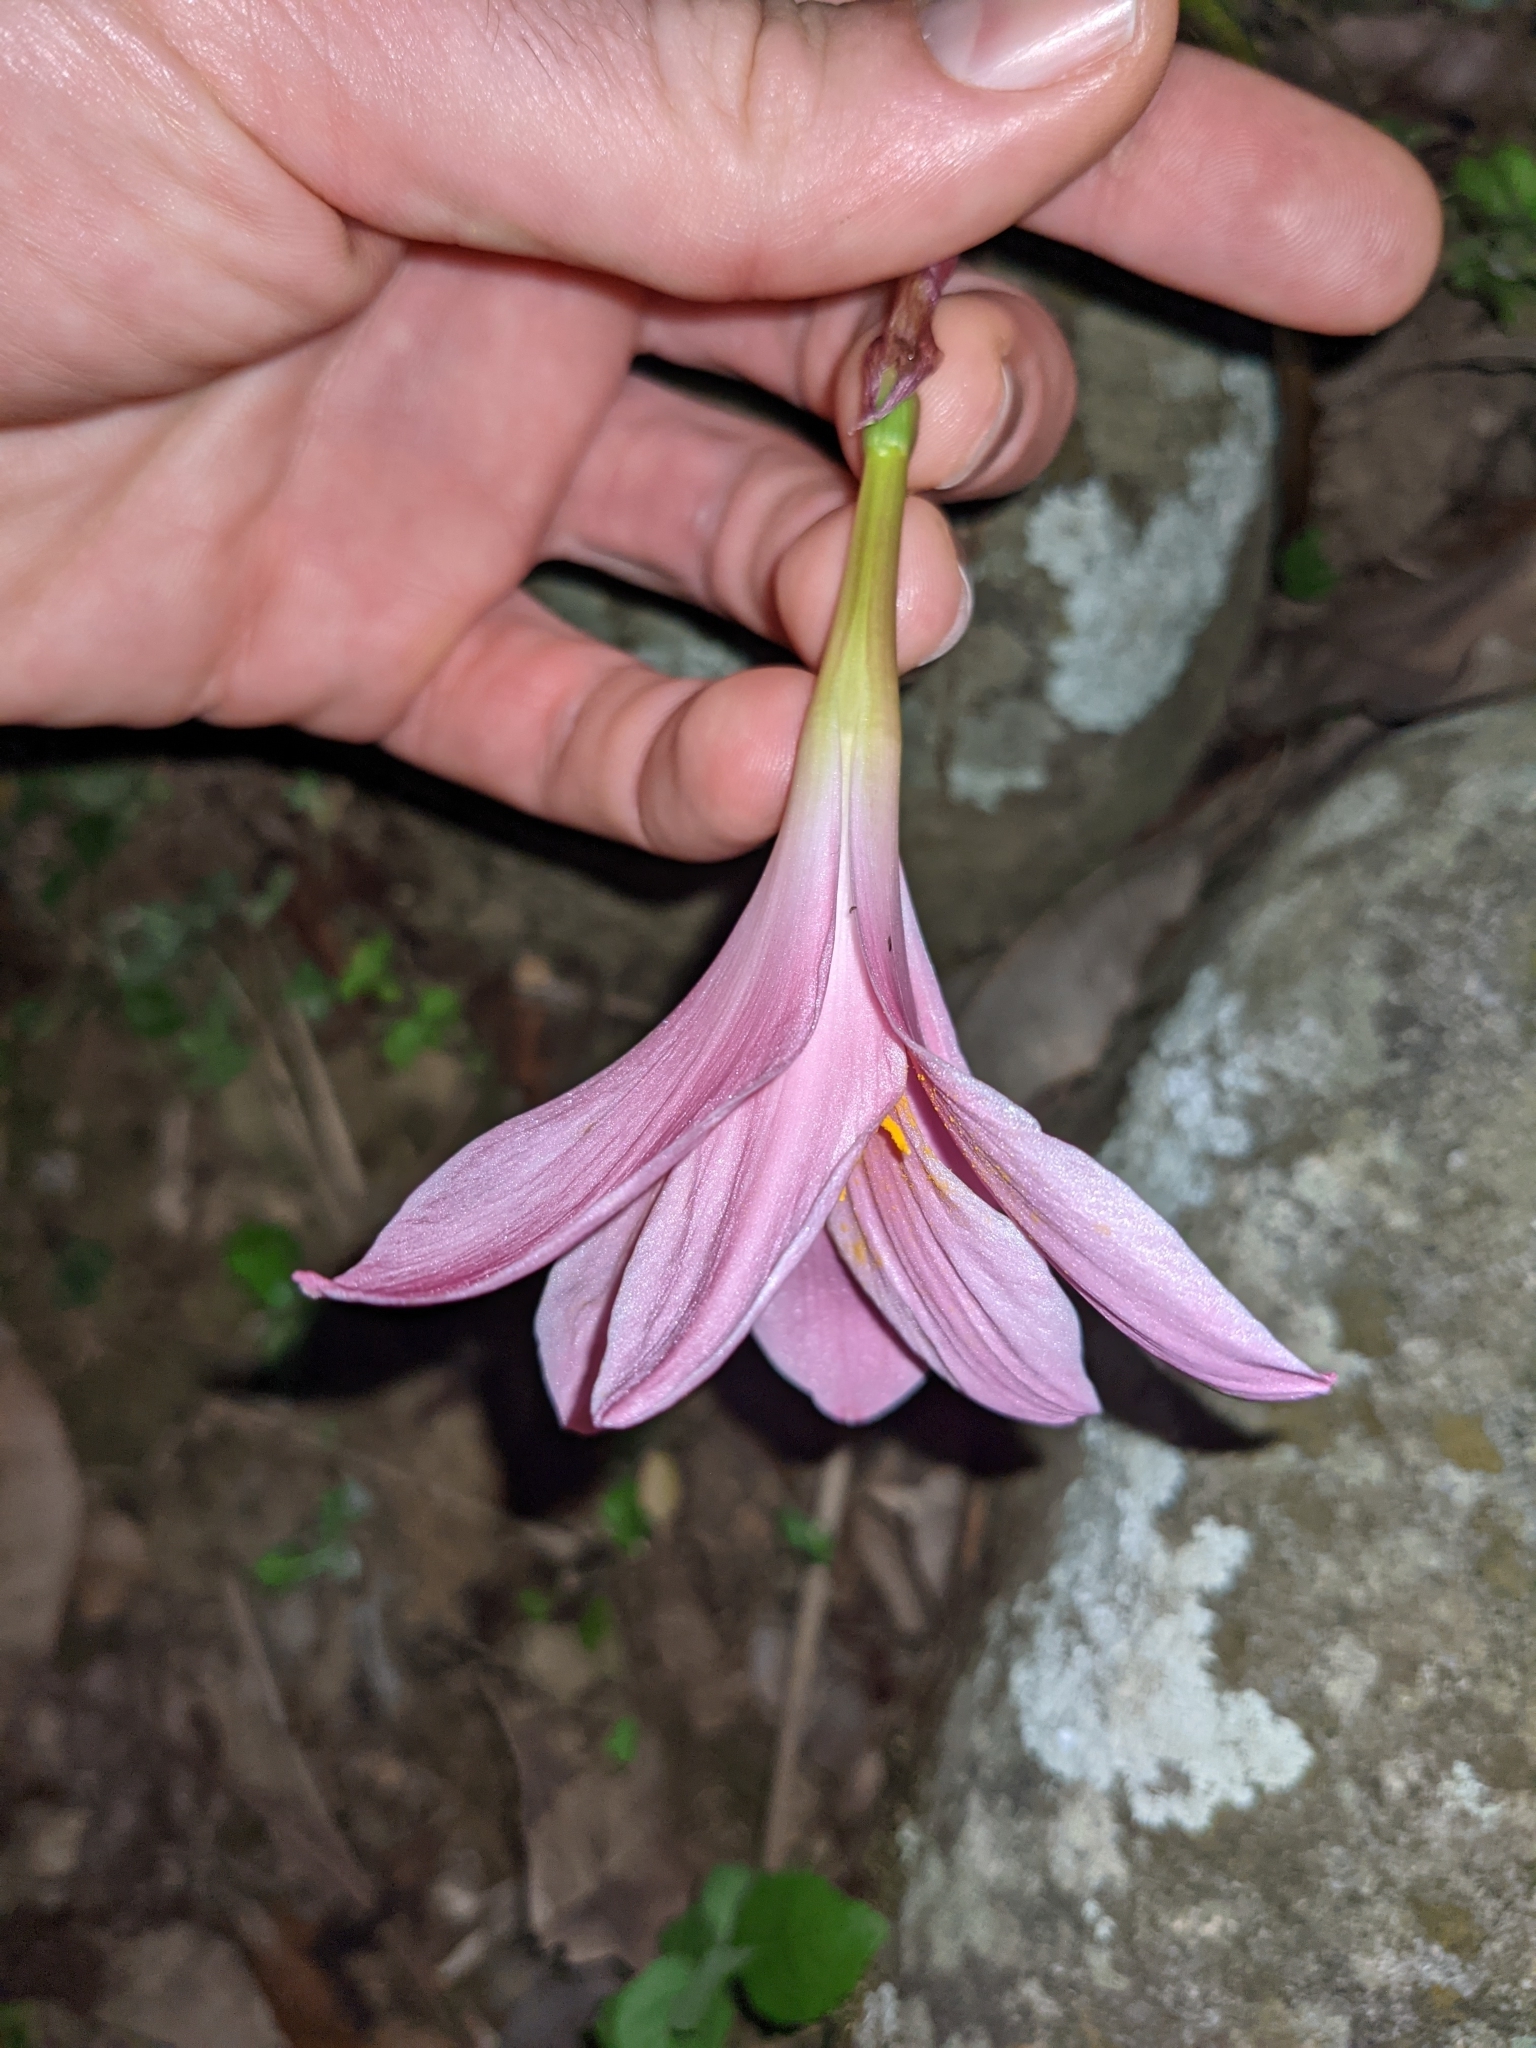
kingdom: Plantae
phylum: Tracheophyta
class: Liliopsida
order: Asparagales
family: Amaryllidaceae
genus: Zephyranthes
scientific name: Zephyranthes carinata
